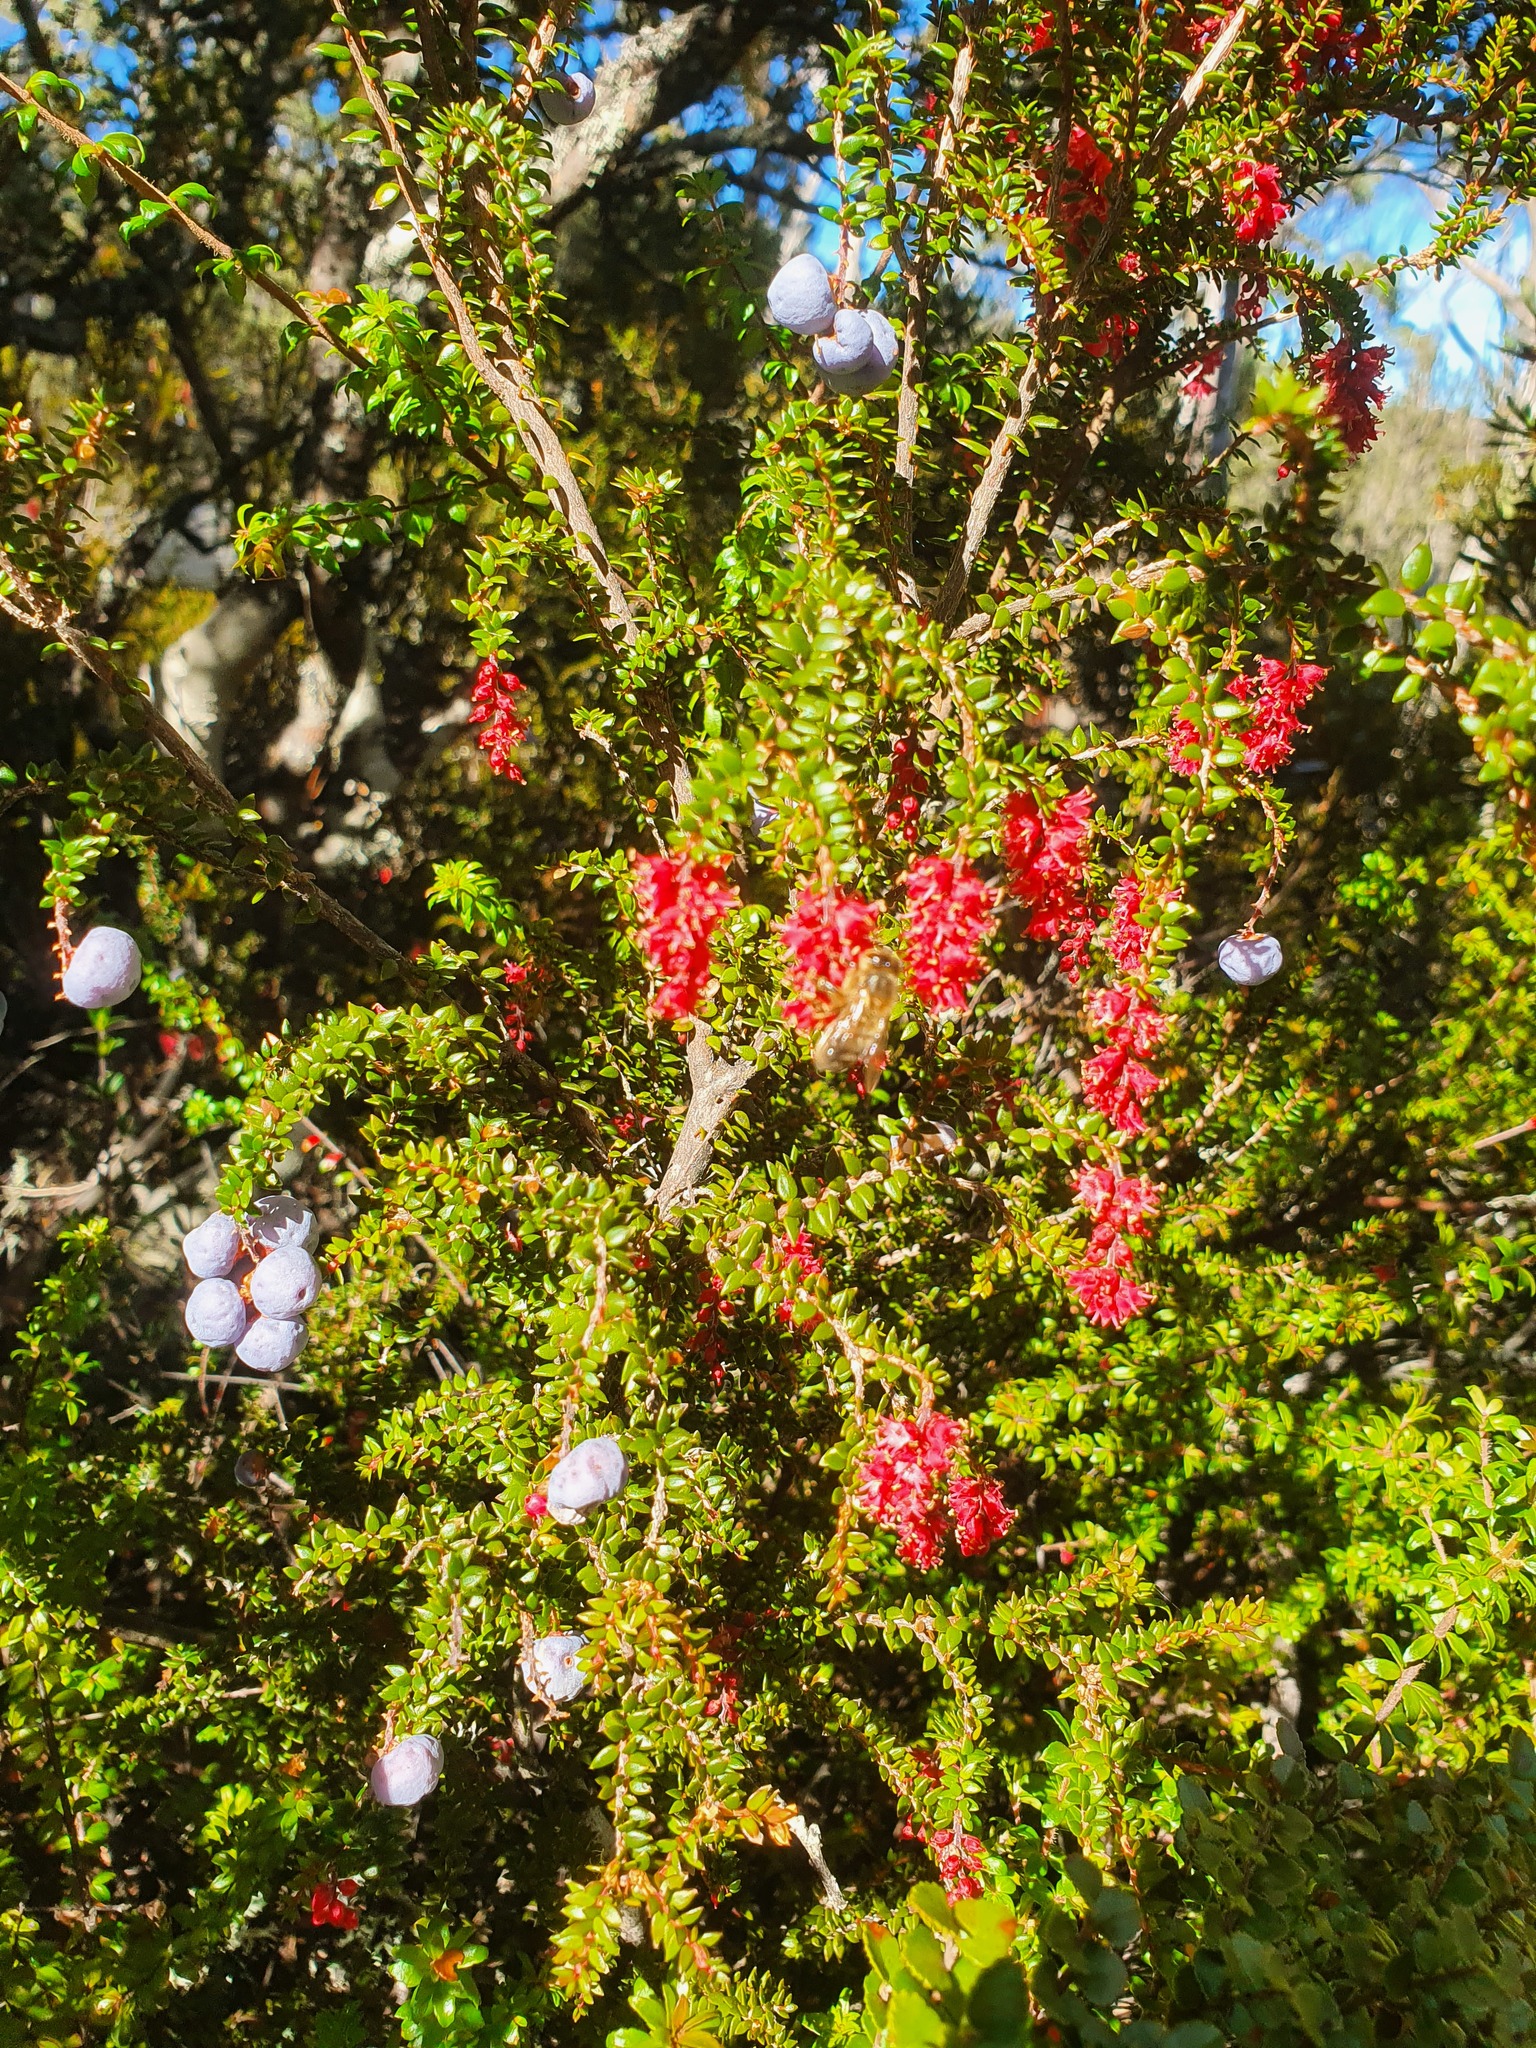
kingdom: Plantae
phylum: Tracheophyta
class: Magnoliopsida
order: Ericales
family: Ericaceae
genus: Trochocarpa
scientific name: Trochocarpa thymifolia
